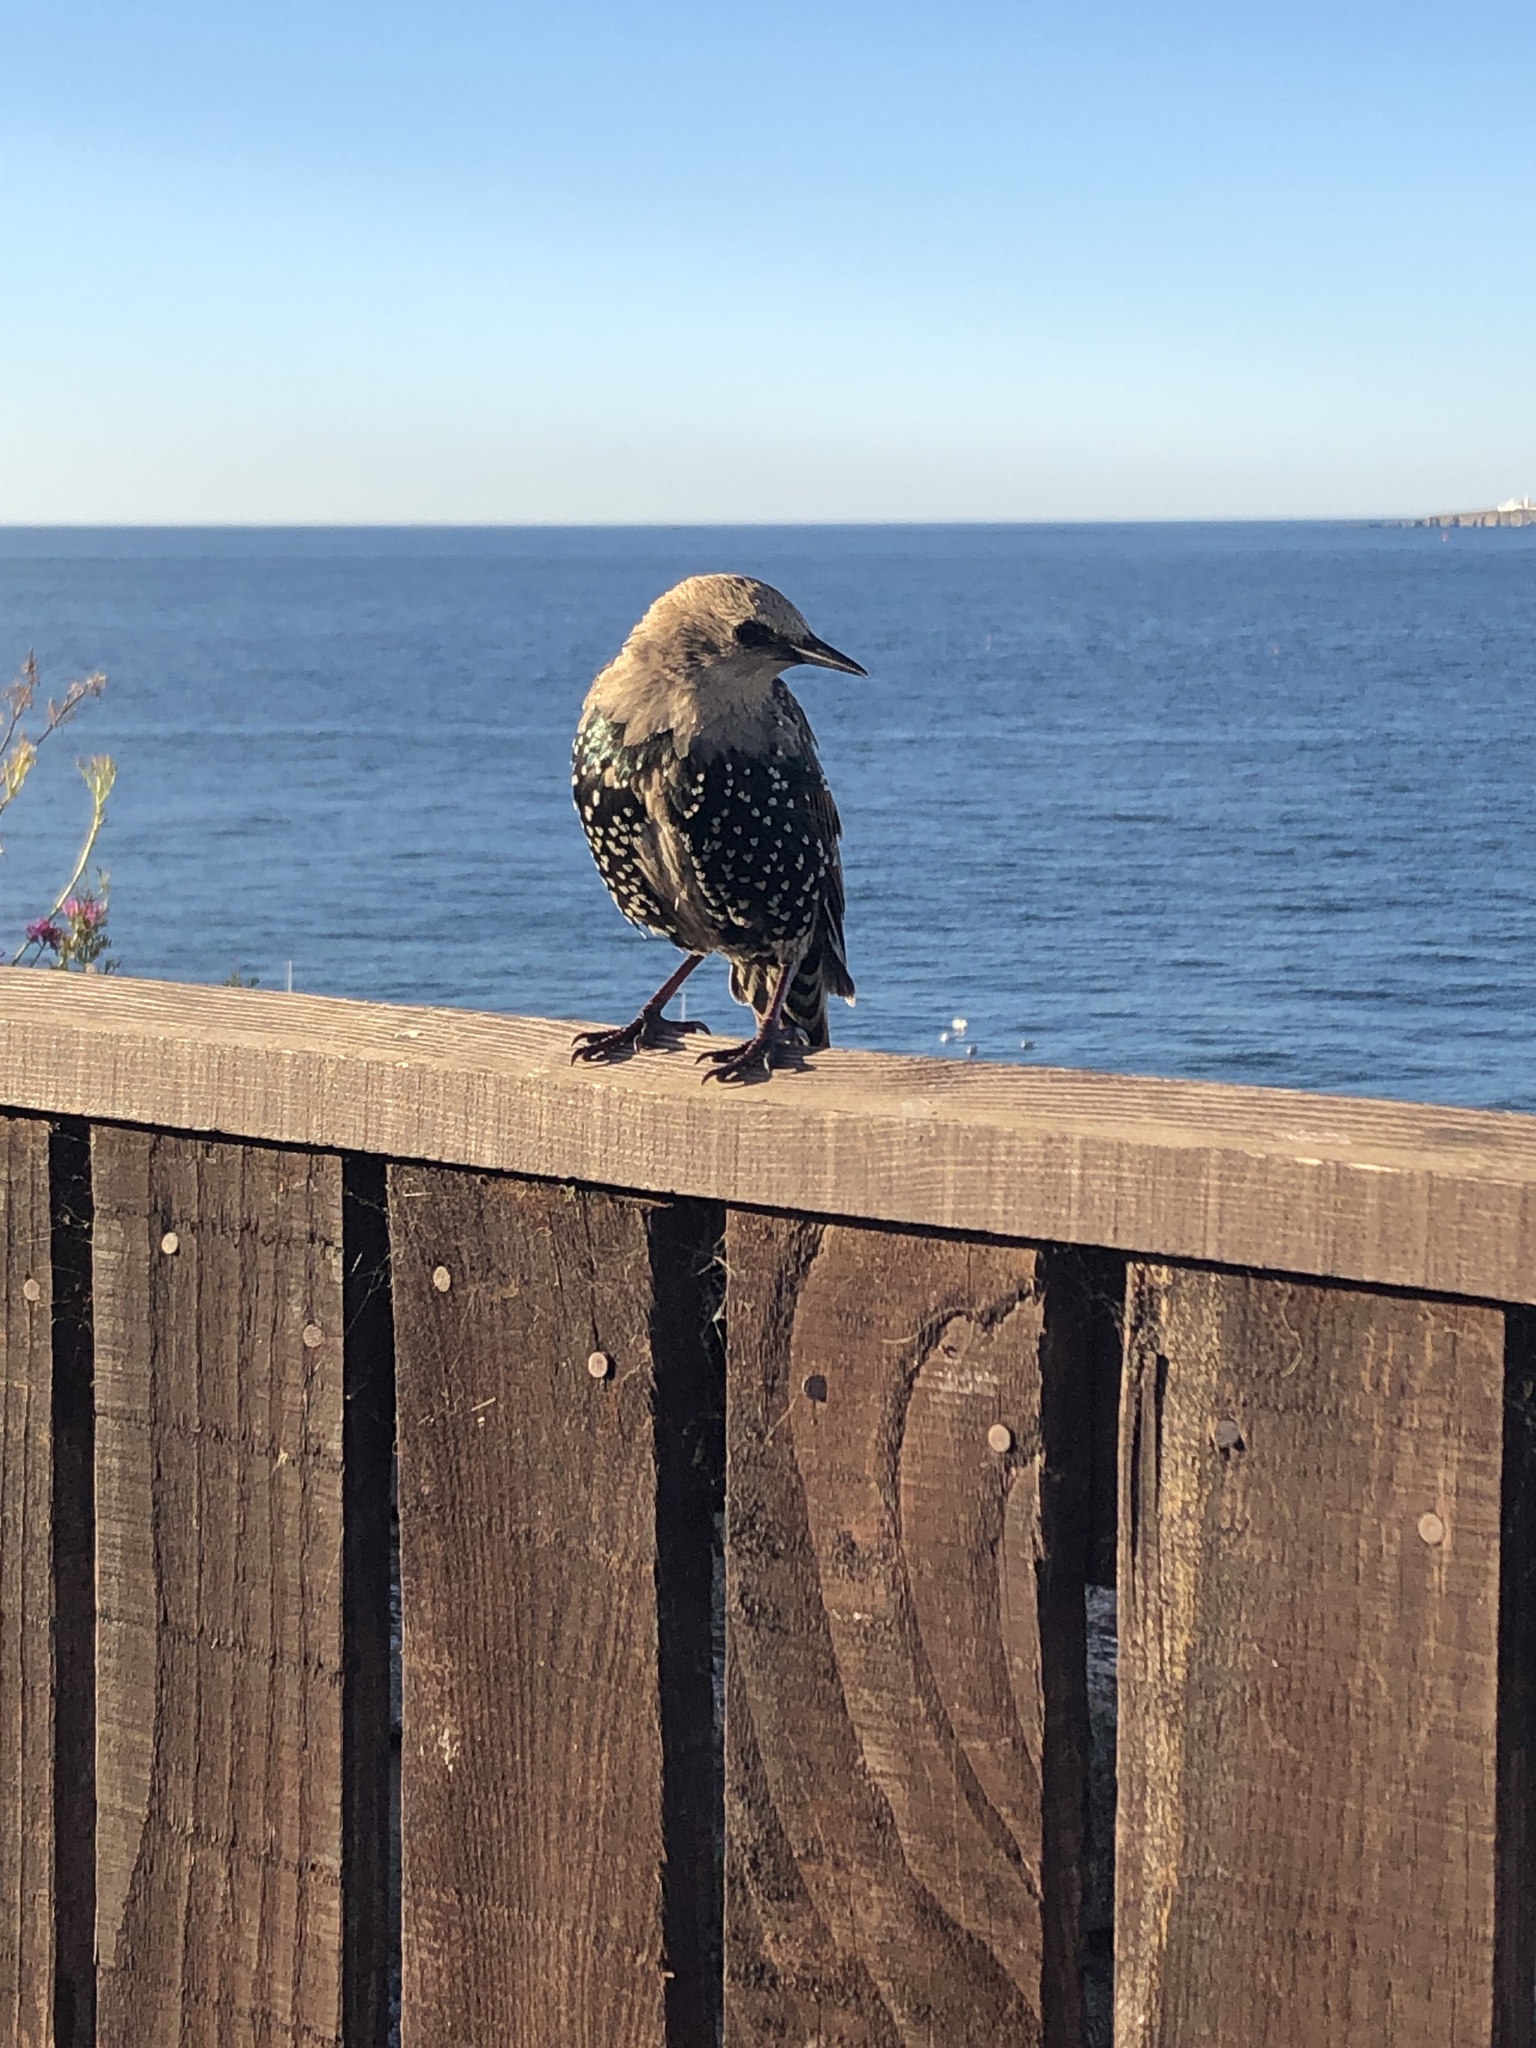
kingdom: Animalia
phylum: Chordata
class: Aves
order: Passeriformes
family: Sturnidae
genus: Sturnus
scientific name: Sturnus vulgaris
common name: Common starling
